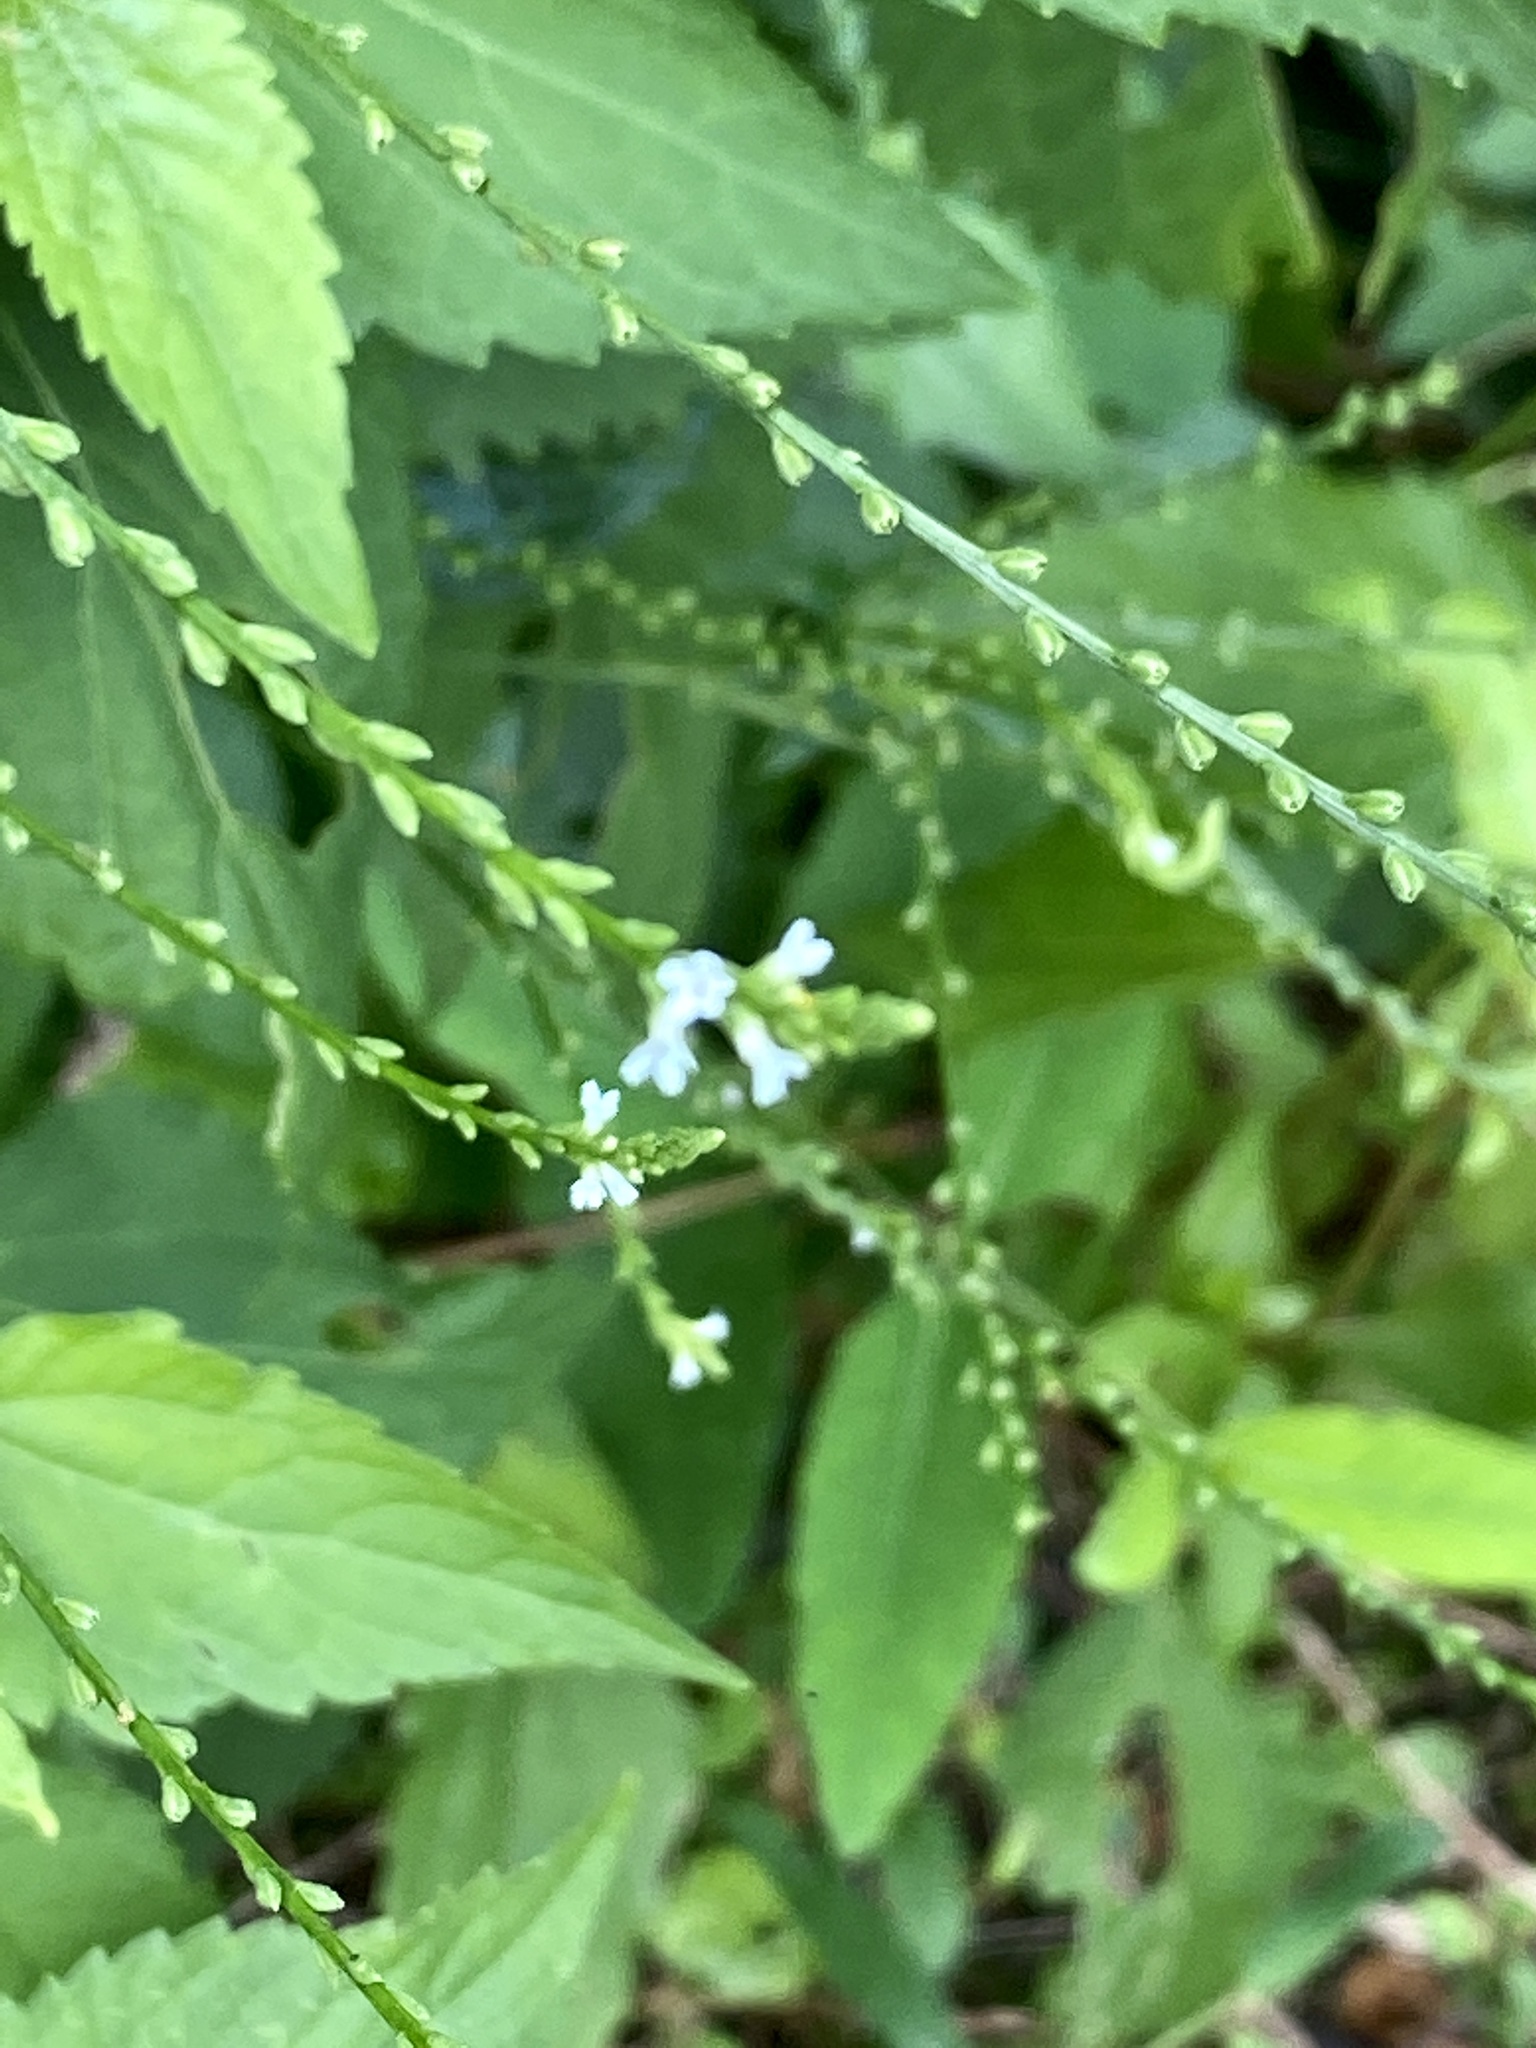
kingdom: Plantae
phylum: Tracheophyta
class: Magnoliopsida
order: Lamiales
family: Verbenaceae
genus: Verbena
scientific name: Verbena urticifolia
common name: Nettle-leaved vervain
